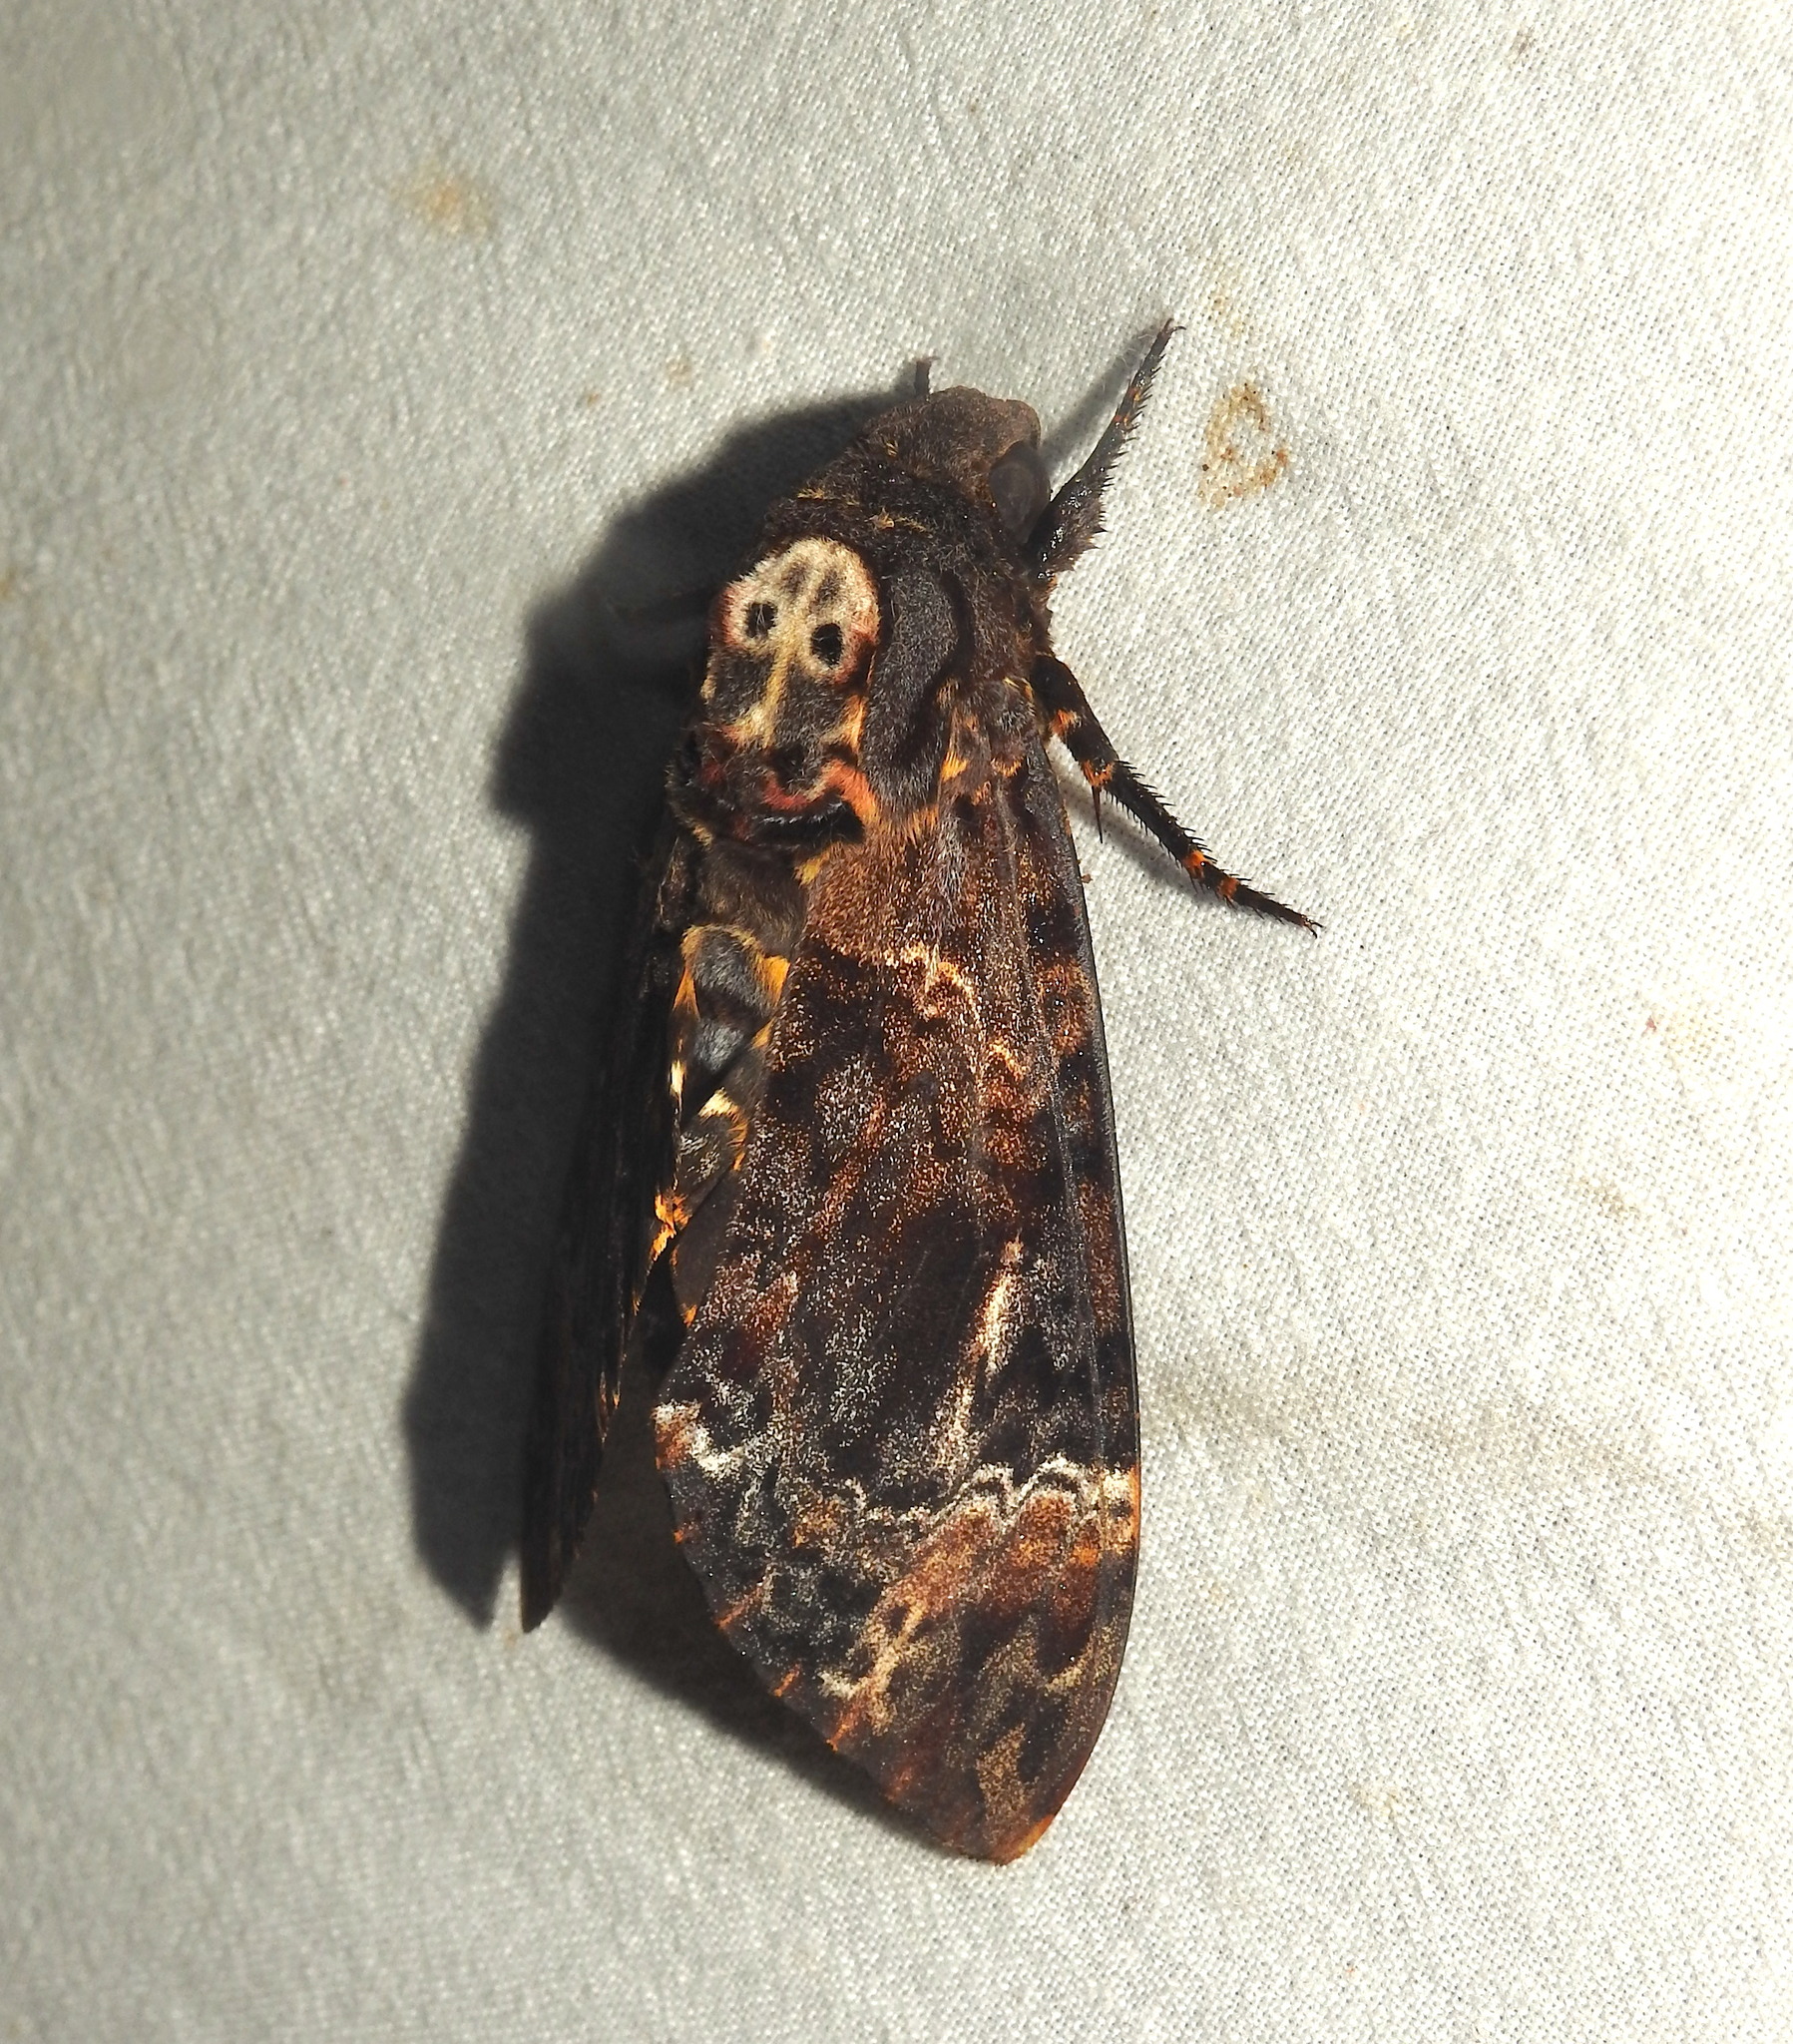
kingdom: Animalia
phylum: Arthropoda
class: Insecta
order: Lepidoptera
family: Sphingidae
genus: Acherontia
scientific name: Acherontia lachesis
